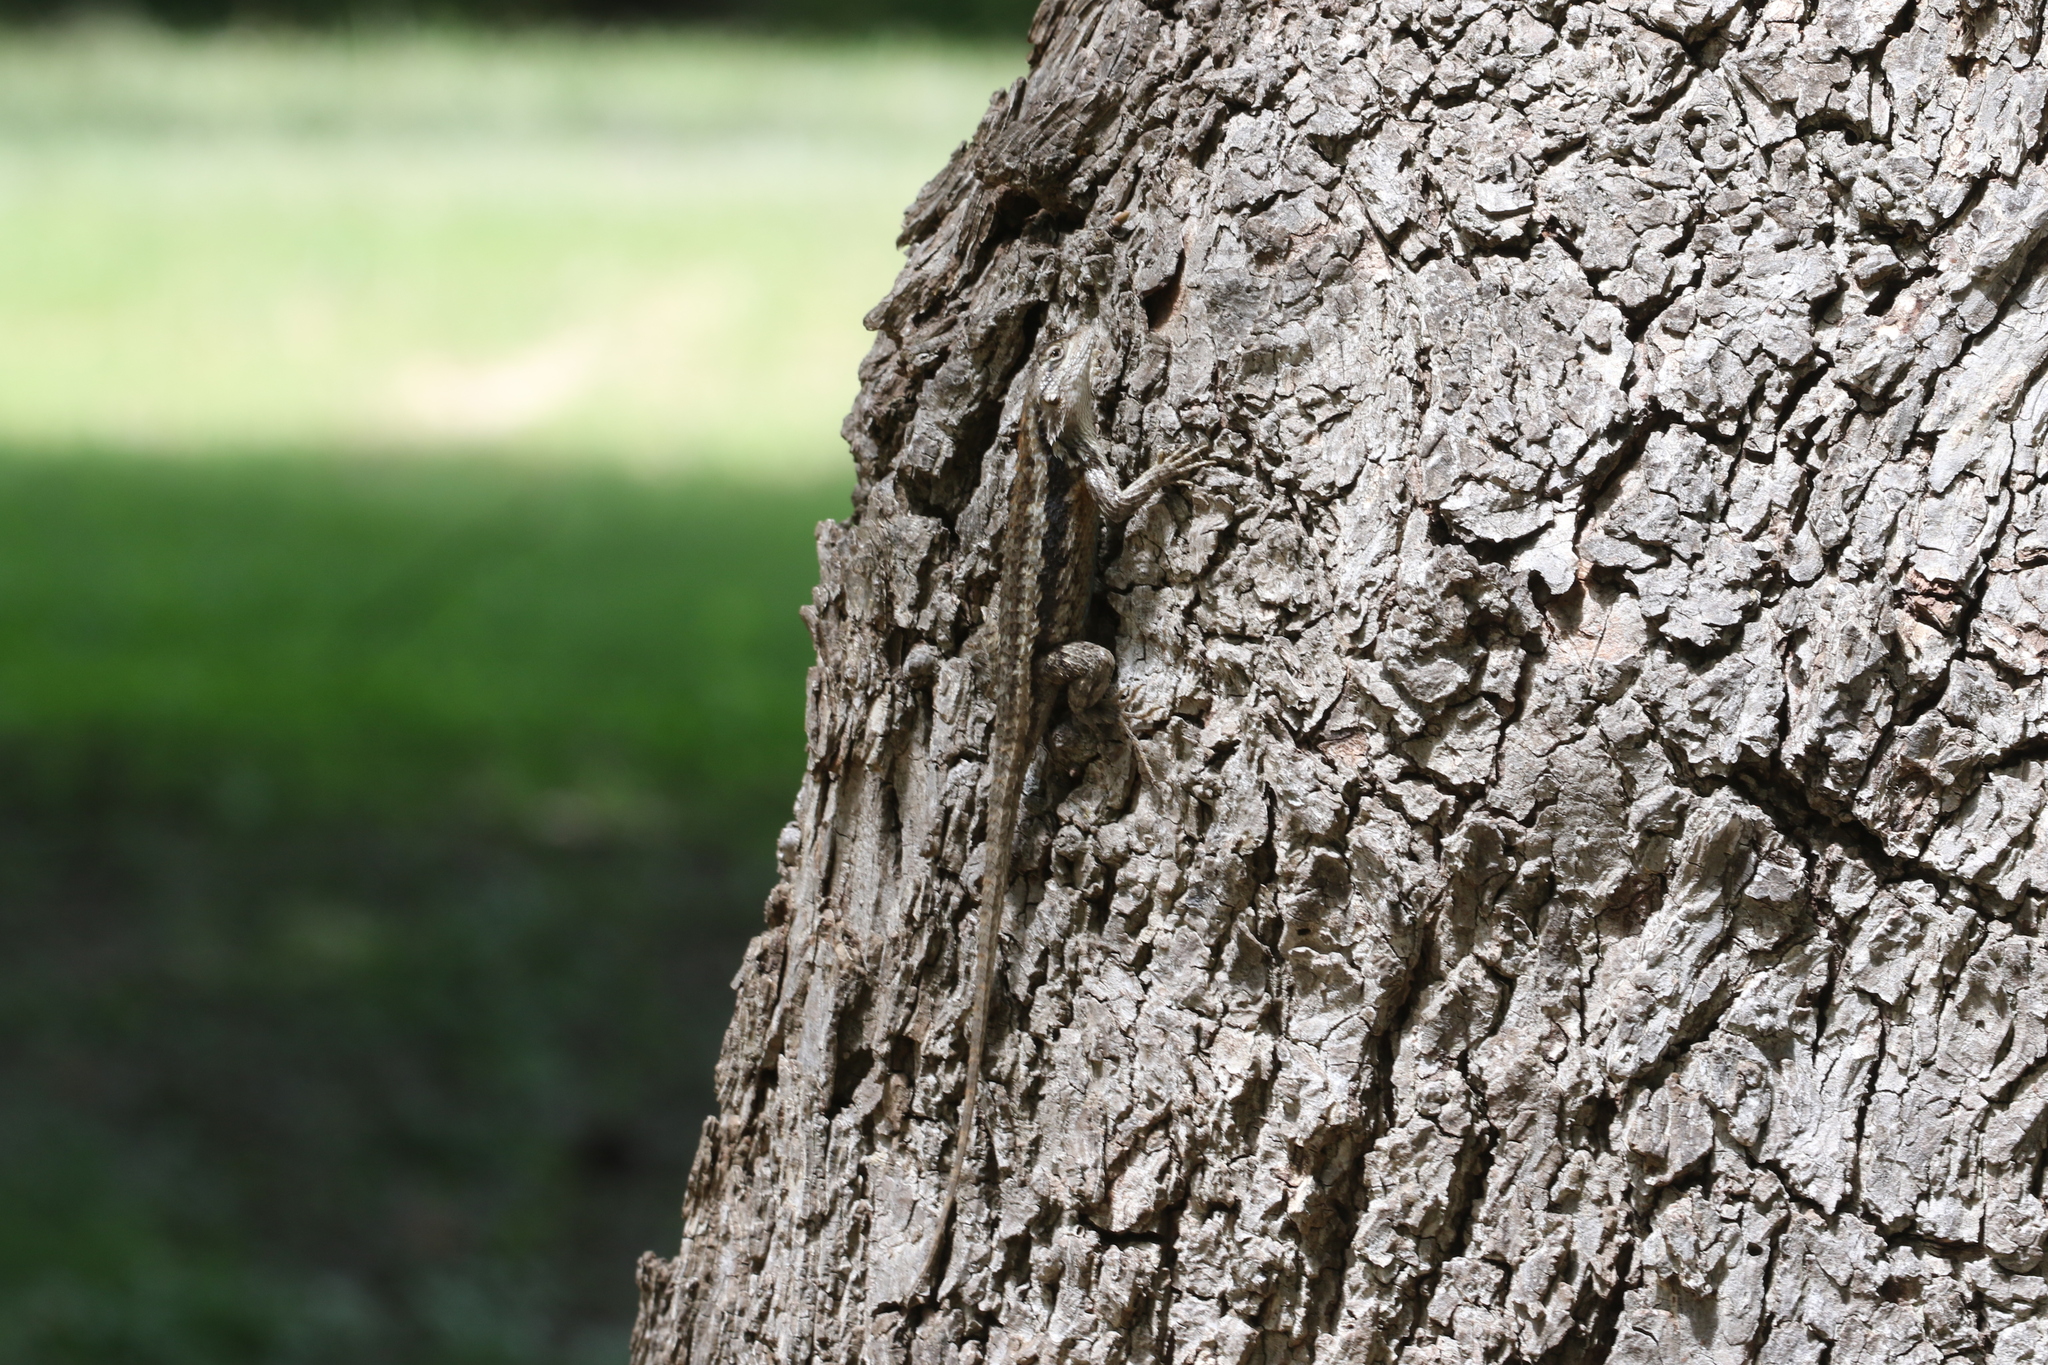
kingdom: Animalia
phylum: Chordata
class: Squamata
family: Phrynosomatidae
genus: Sceloporus
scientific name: Sceloporus olivaceus
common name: Texas spiny lizard
